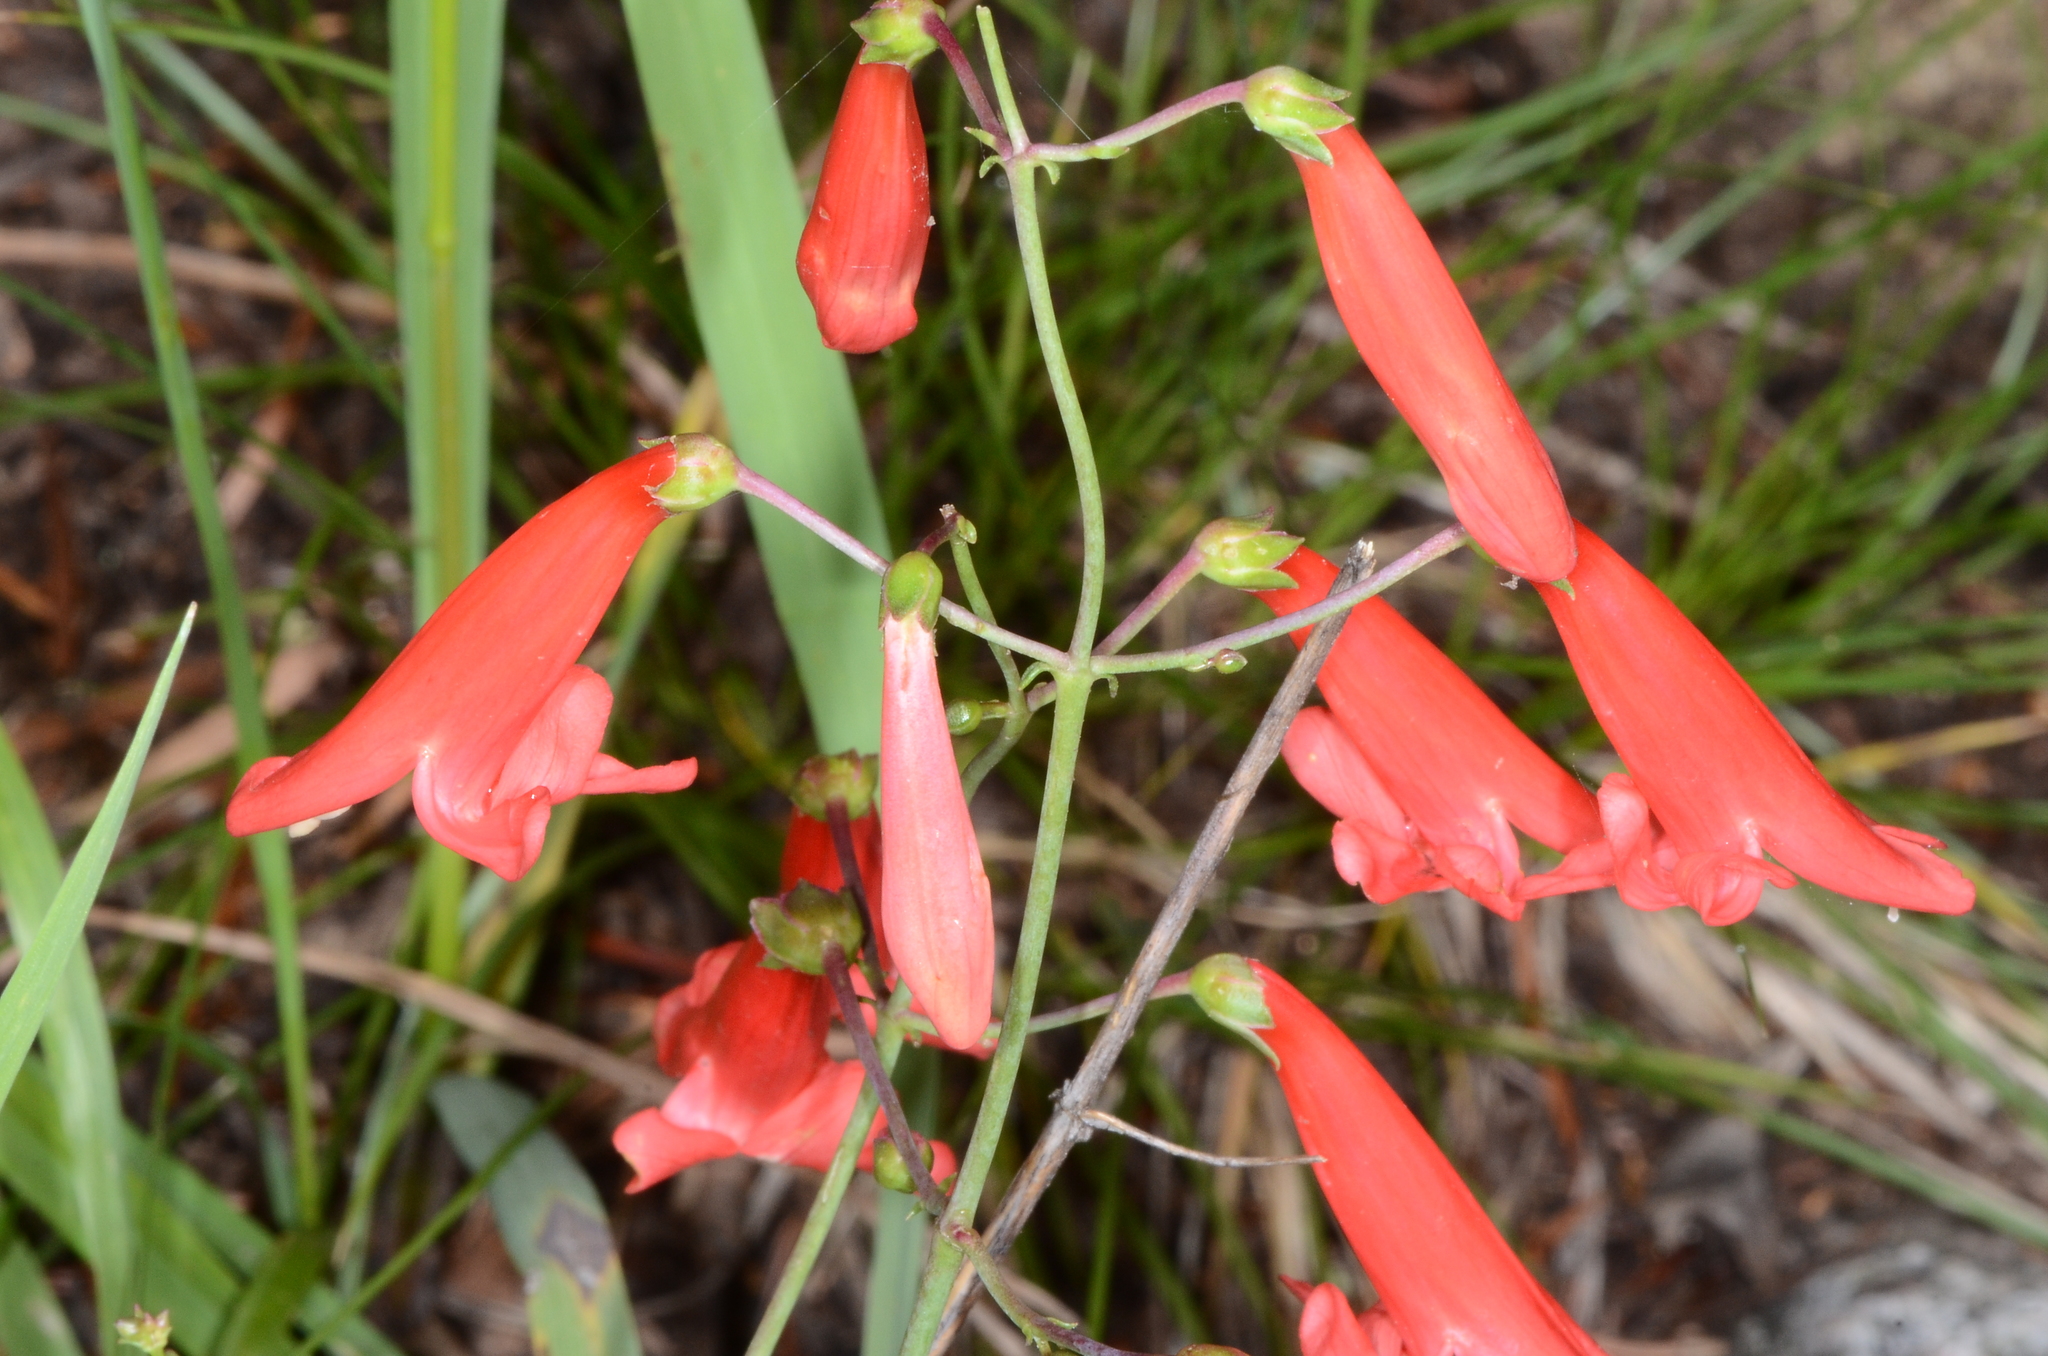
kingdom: Plantae
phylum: Tracheophyta
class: Magnoliopsida
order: Lamiales
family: Plantaginaceae
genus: Penstemon
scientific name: Penstemon barbatus
